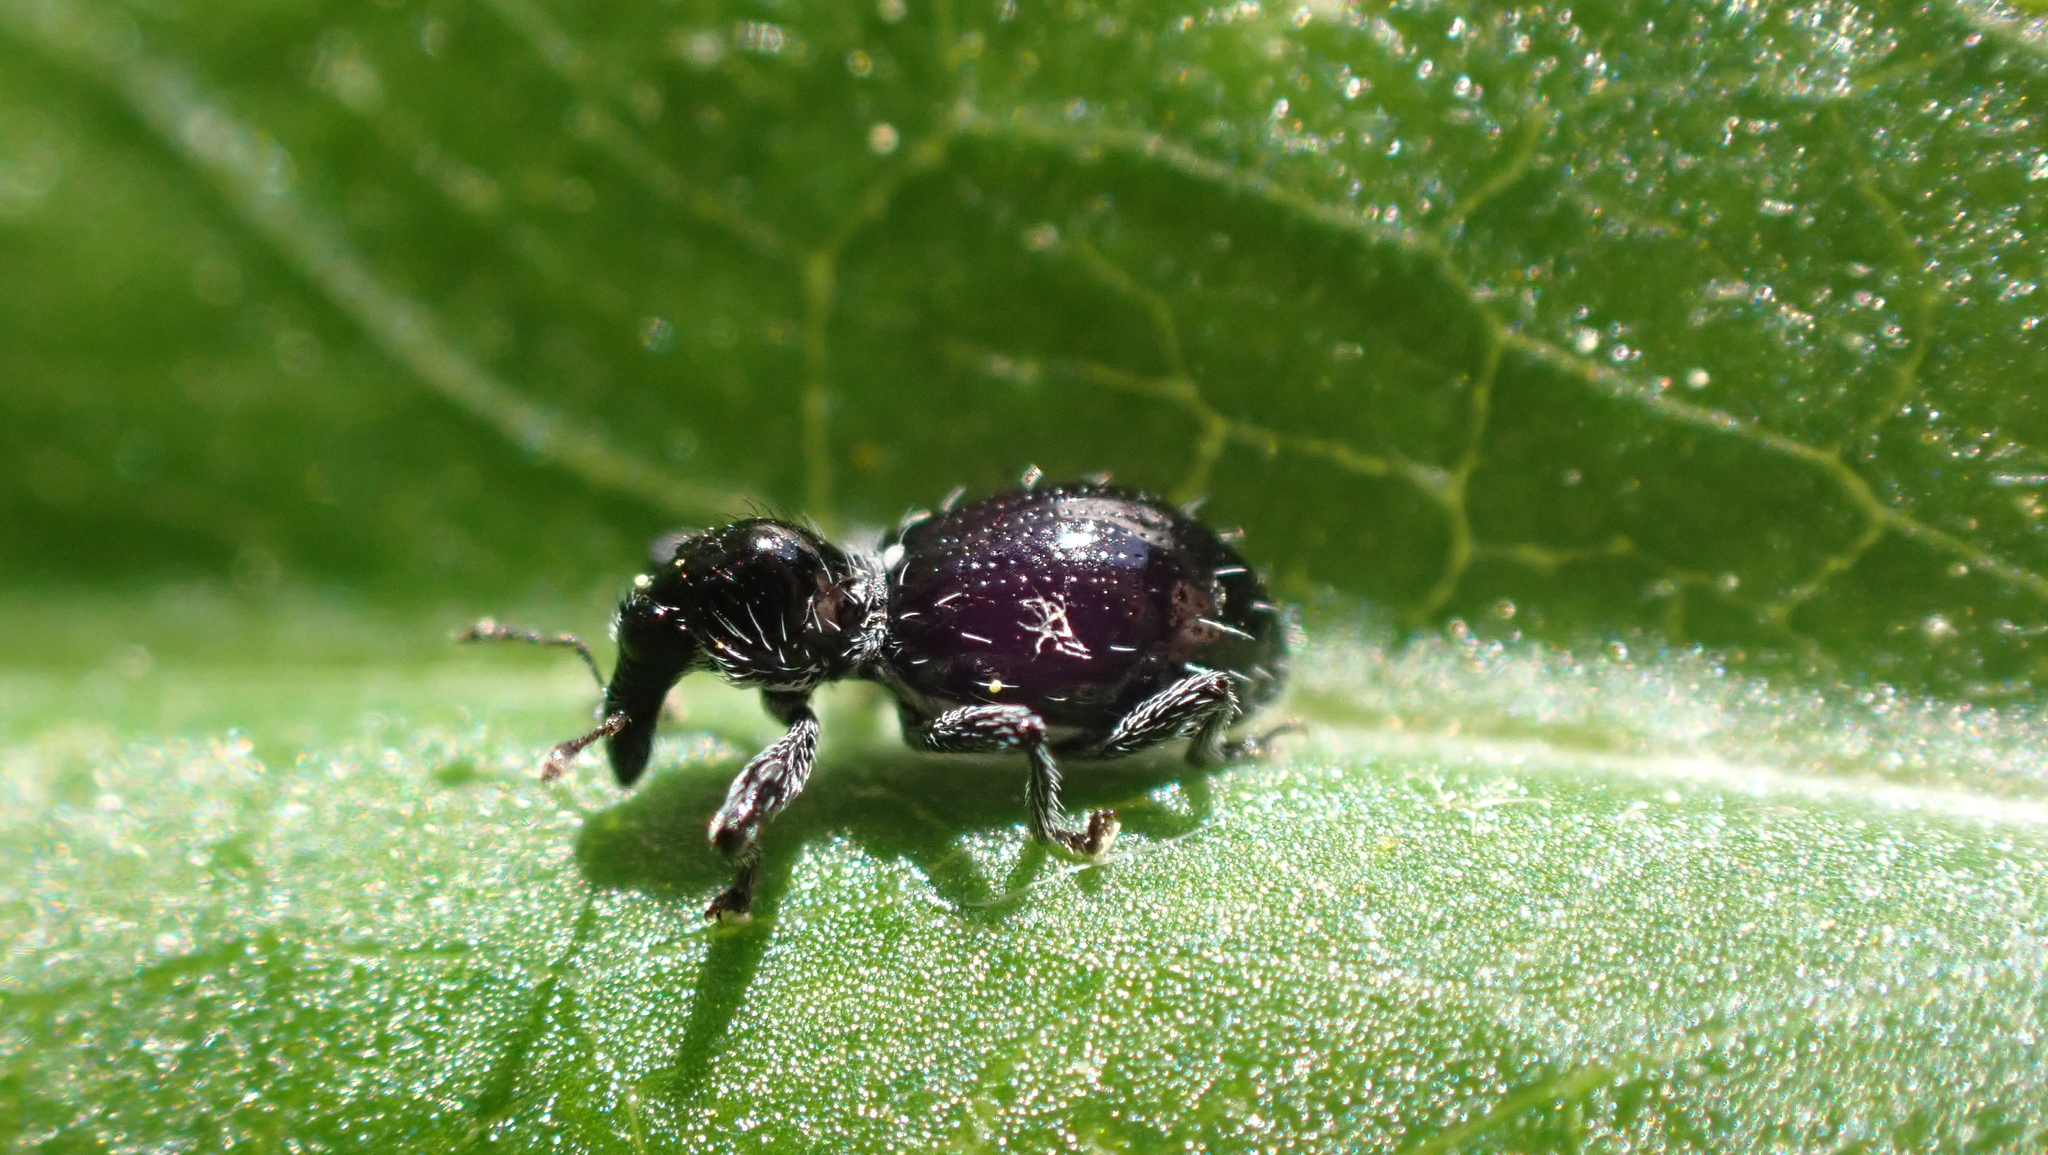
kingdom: Animalia
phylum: Arthropoda
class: Insecta
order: Coleoptera
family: Curculionidae
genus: Otidocephalus
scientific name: Otidocephalus laevicollis
